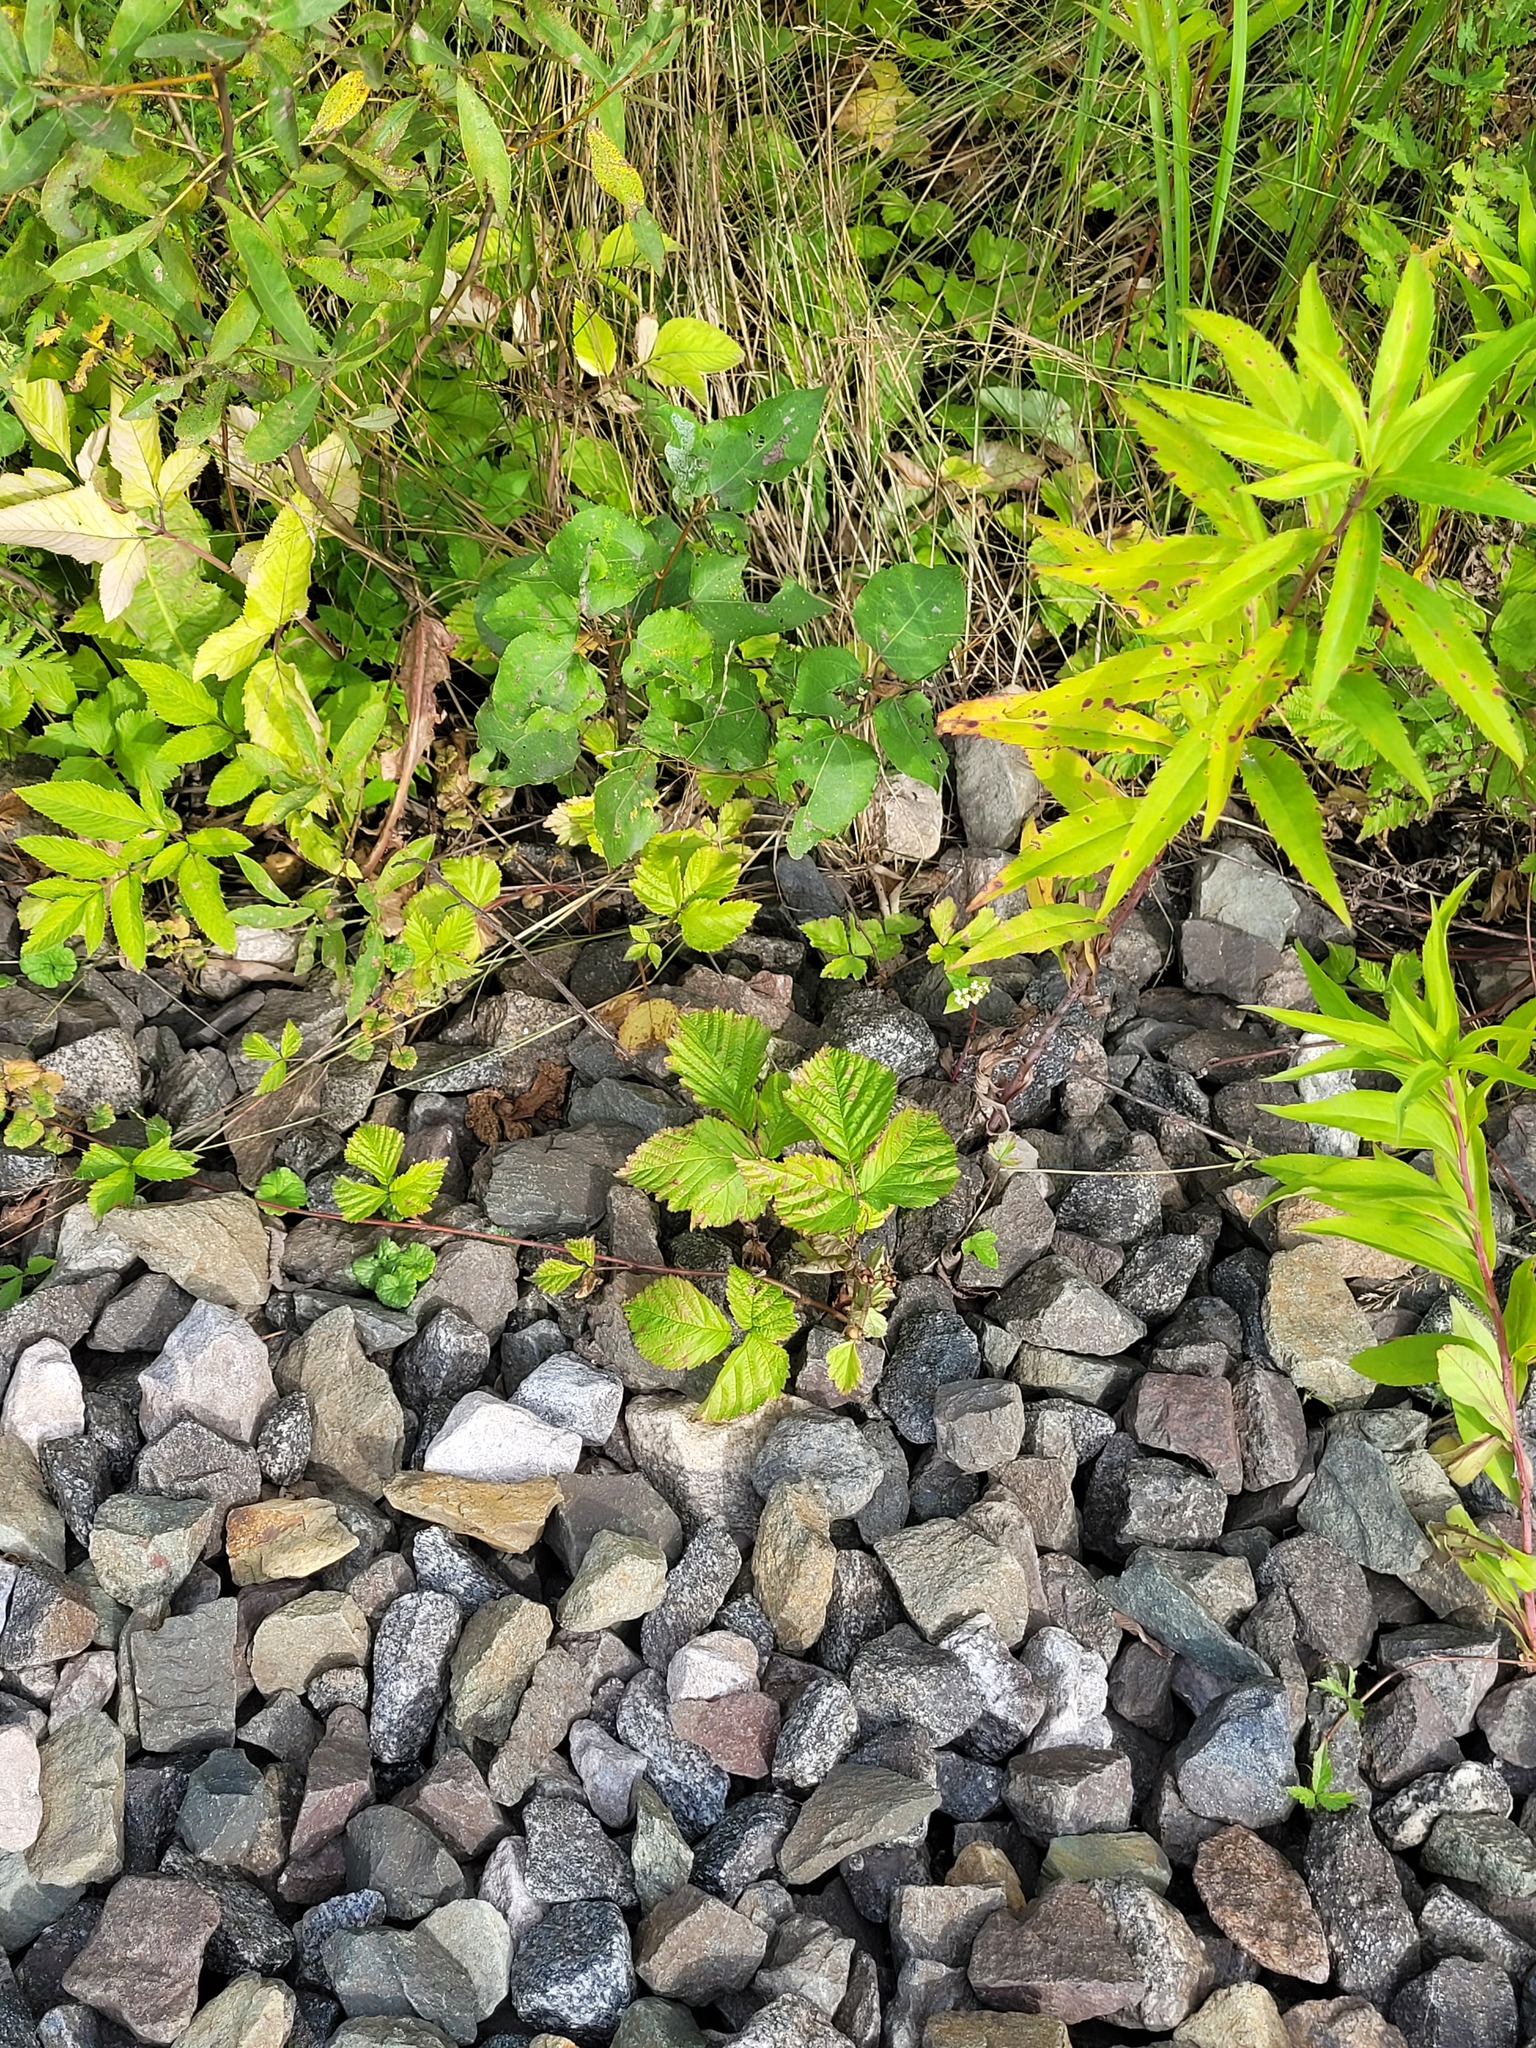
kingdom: Plantae
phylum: Tracheophyta
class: Magnoliopsida
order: Rosales
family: Rosaceae
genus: Rubus
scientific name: Rubus saxatilis
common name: Stone bramble
